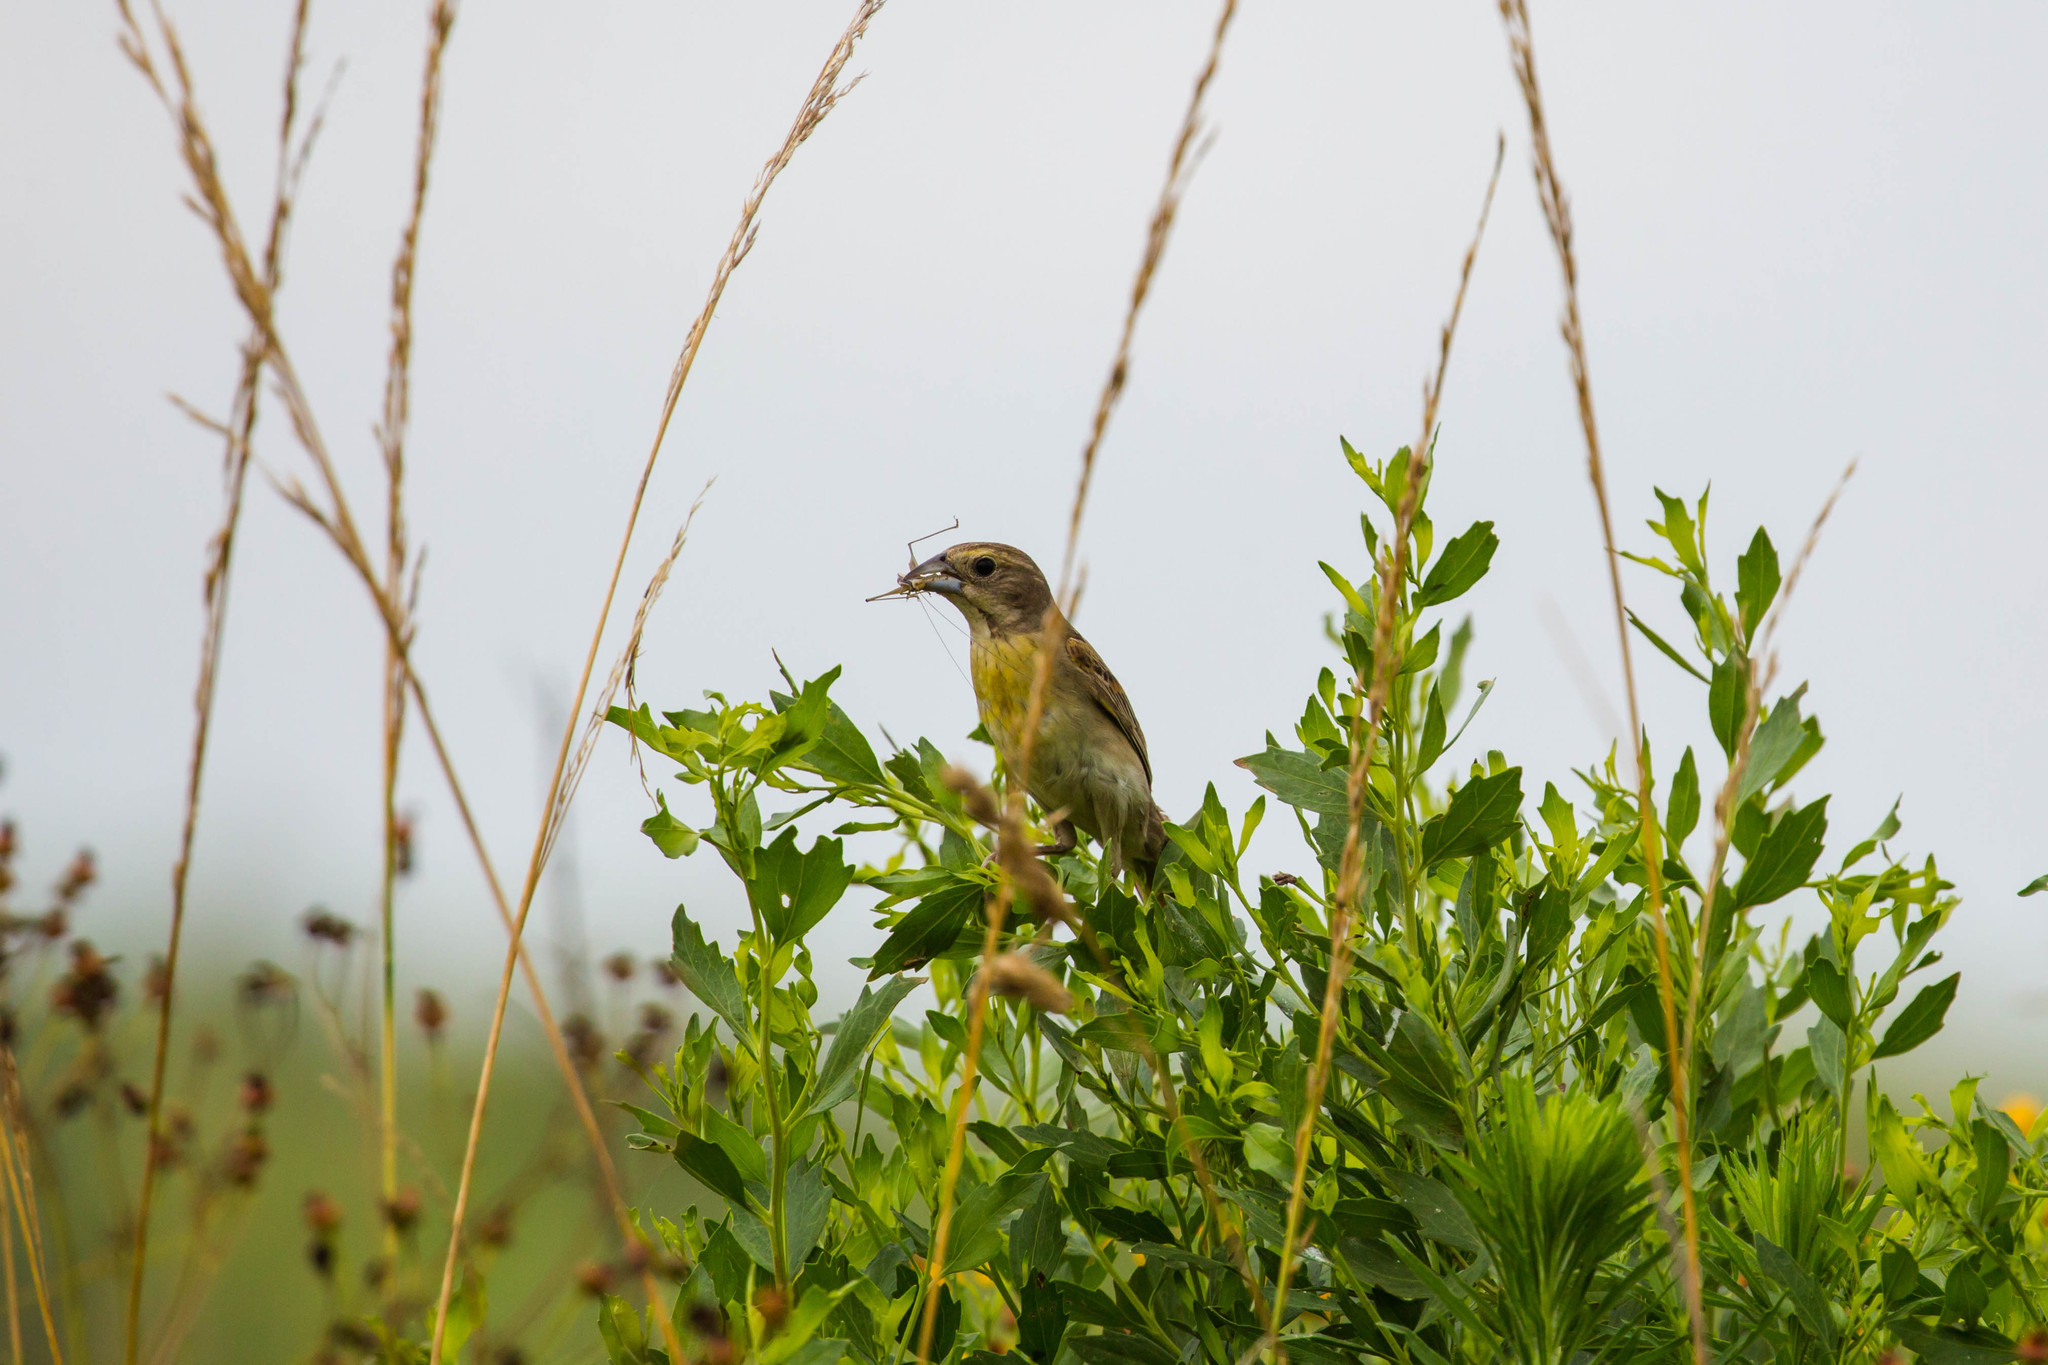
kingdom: Animalia
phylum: Chordata
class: Aves
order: Passeriformes
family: Cardinalidae
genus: Spiza
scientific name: Spiza americana
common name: Dickcissel
